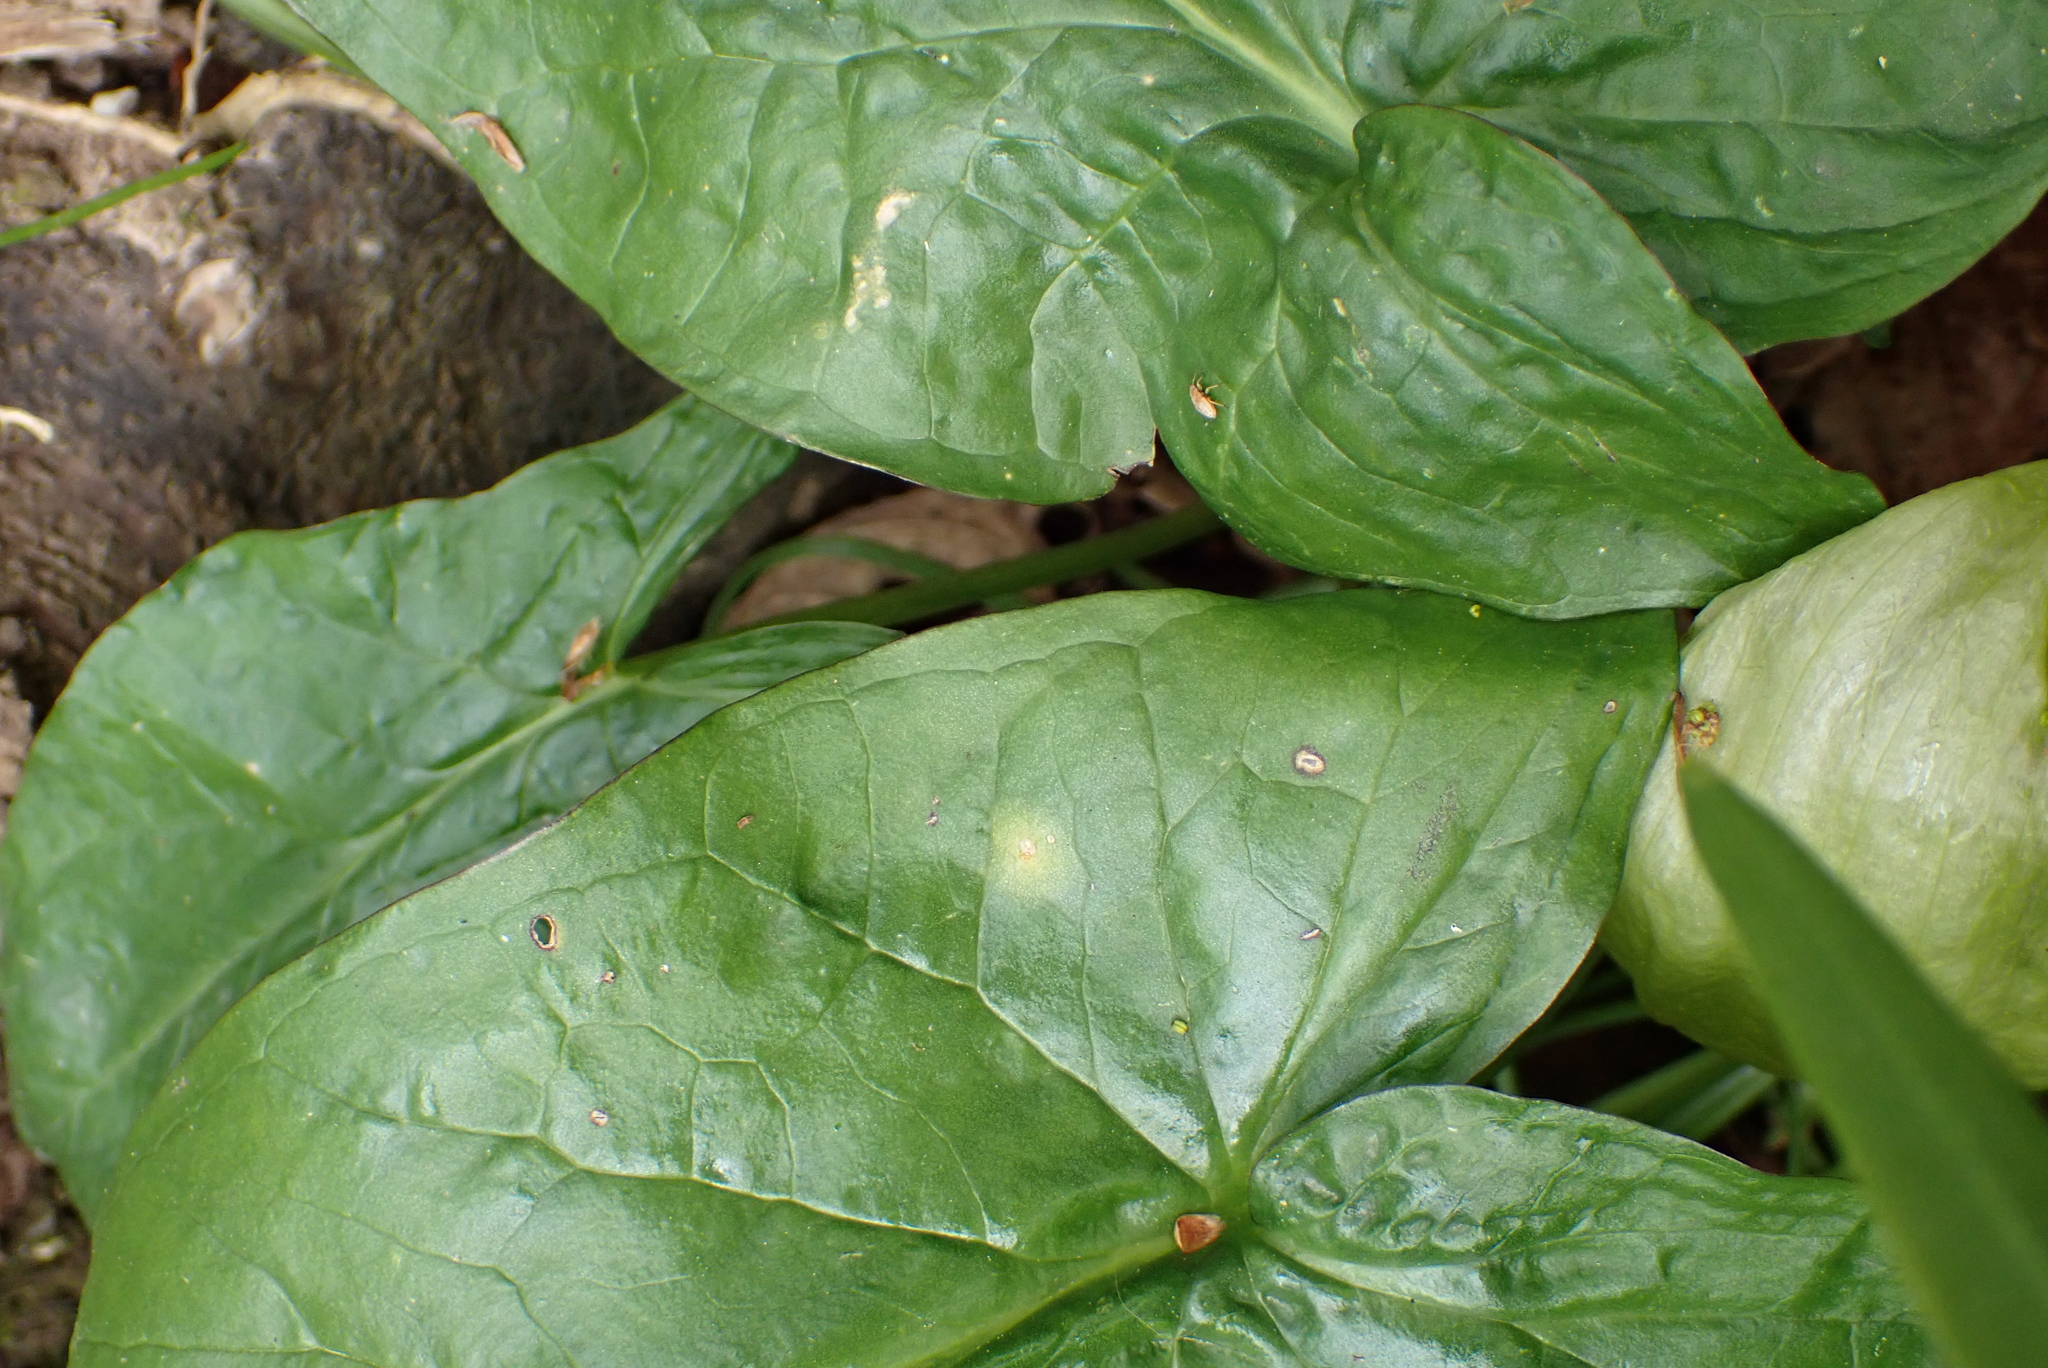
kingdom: Plantae
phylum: Tracheophyta
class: Liliopsida
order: Alismatales
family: Araceae
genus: Arum
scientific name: Arum maculatum
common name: Lords-and-ladies
